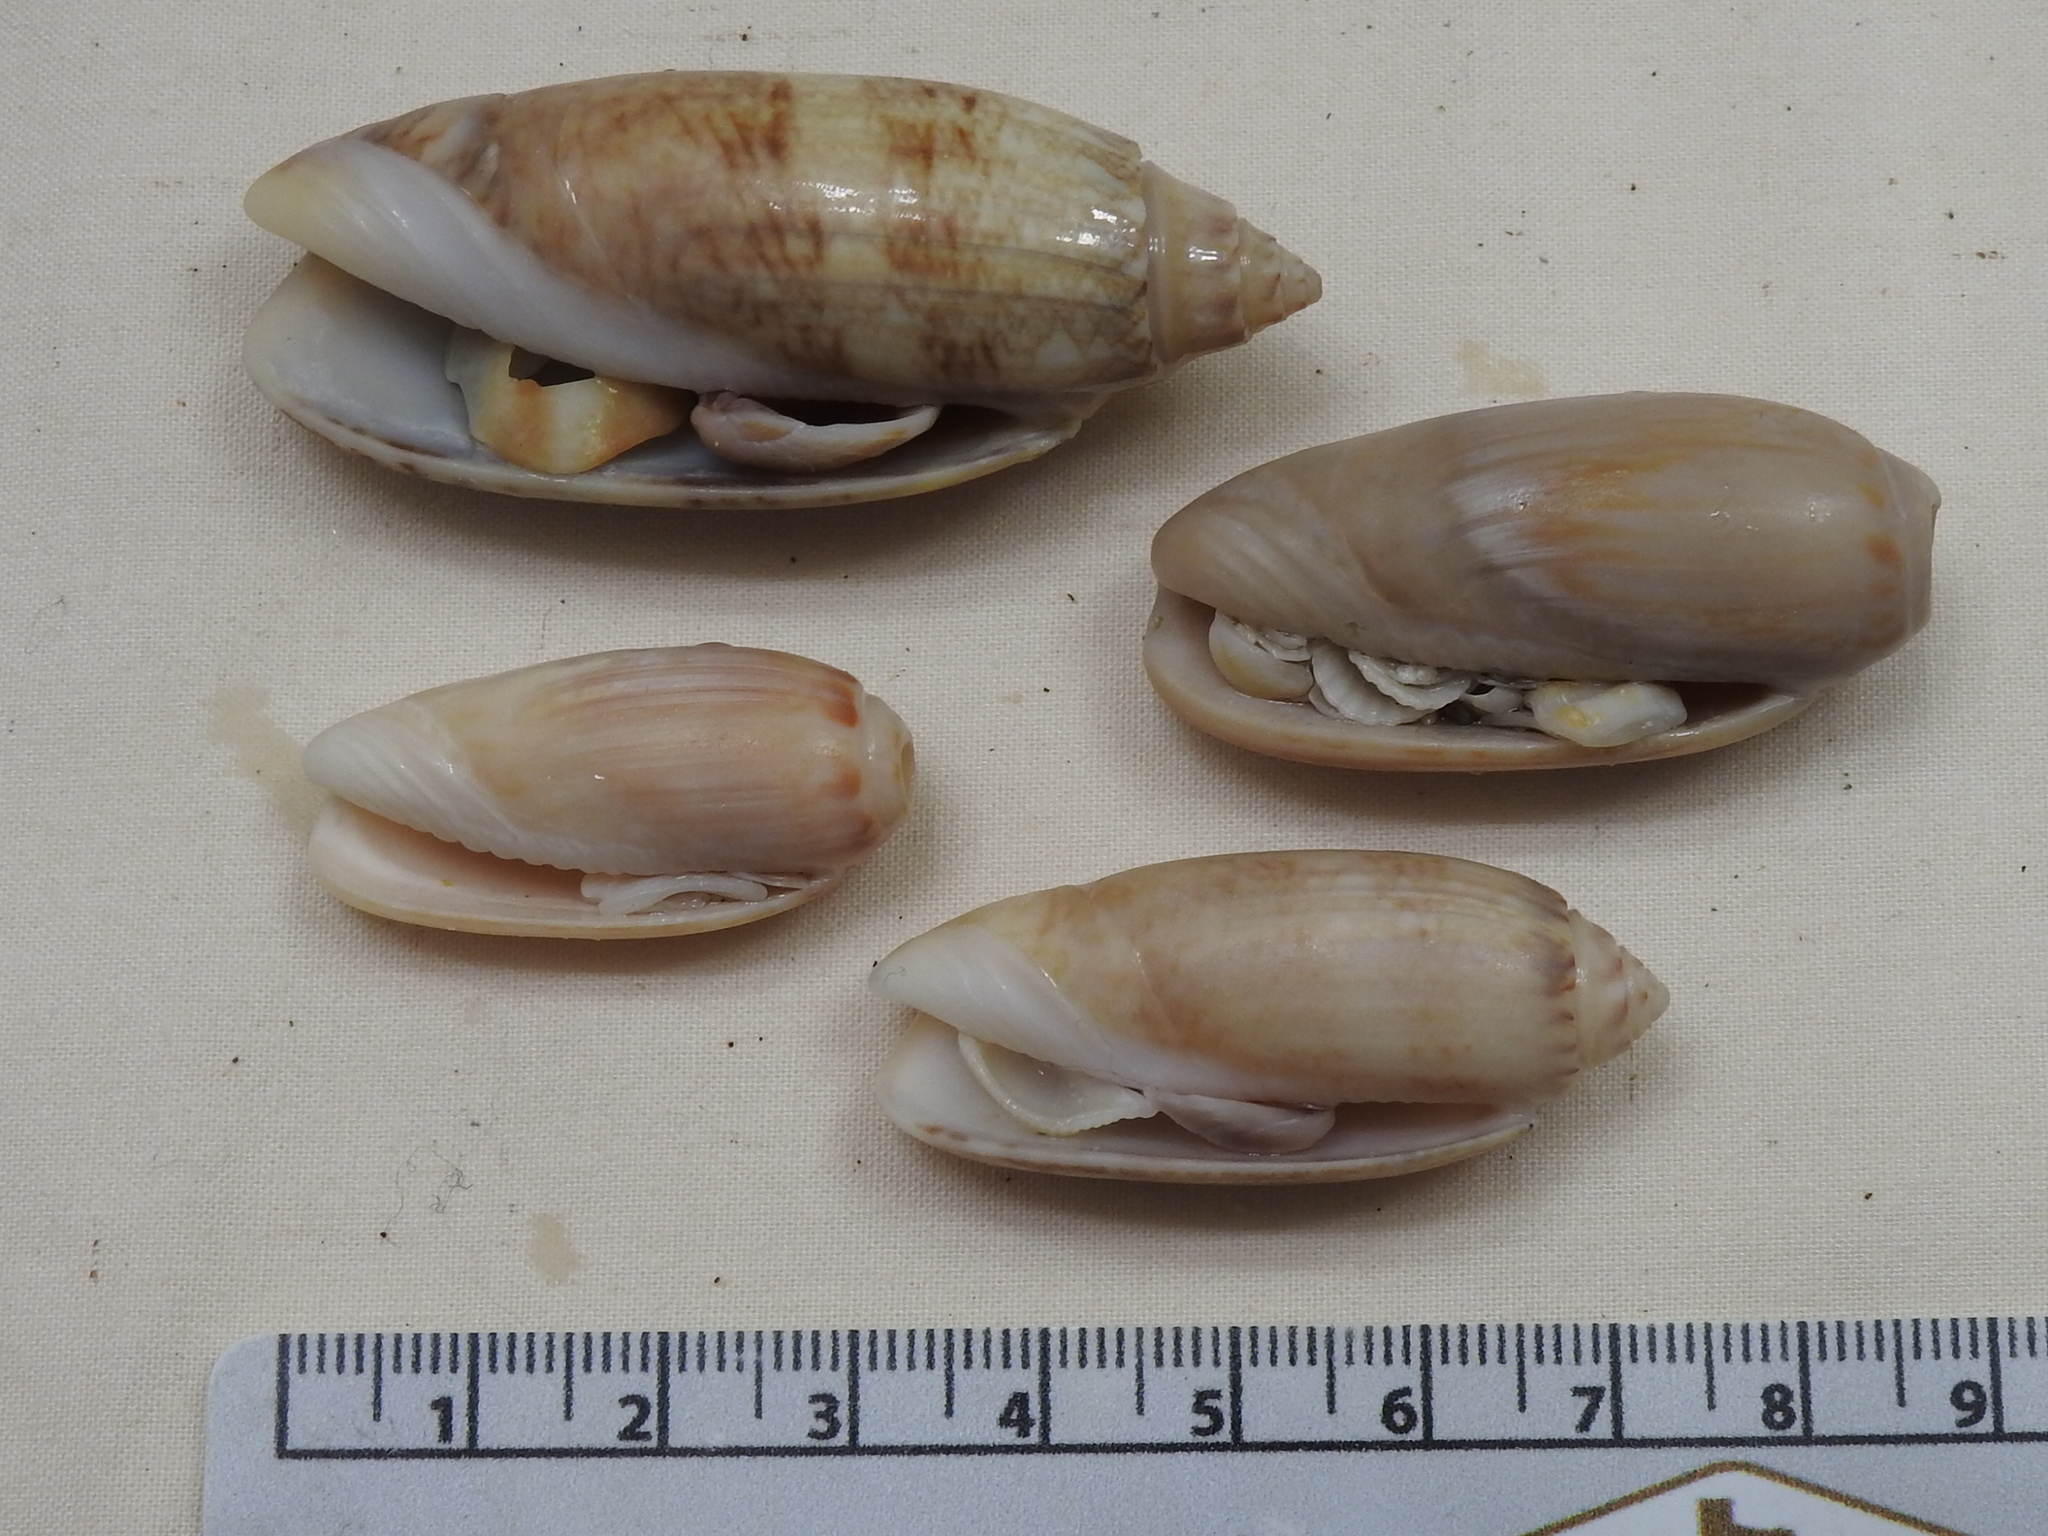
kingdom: Animalia
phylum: Mollusca
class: Gastropoda
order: Neogastropoda
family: Olividae
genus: Oliva
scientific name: Oliva sayana
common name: Lettered olive
